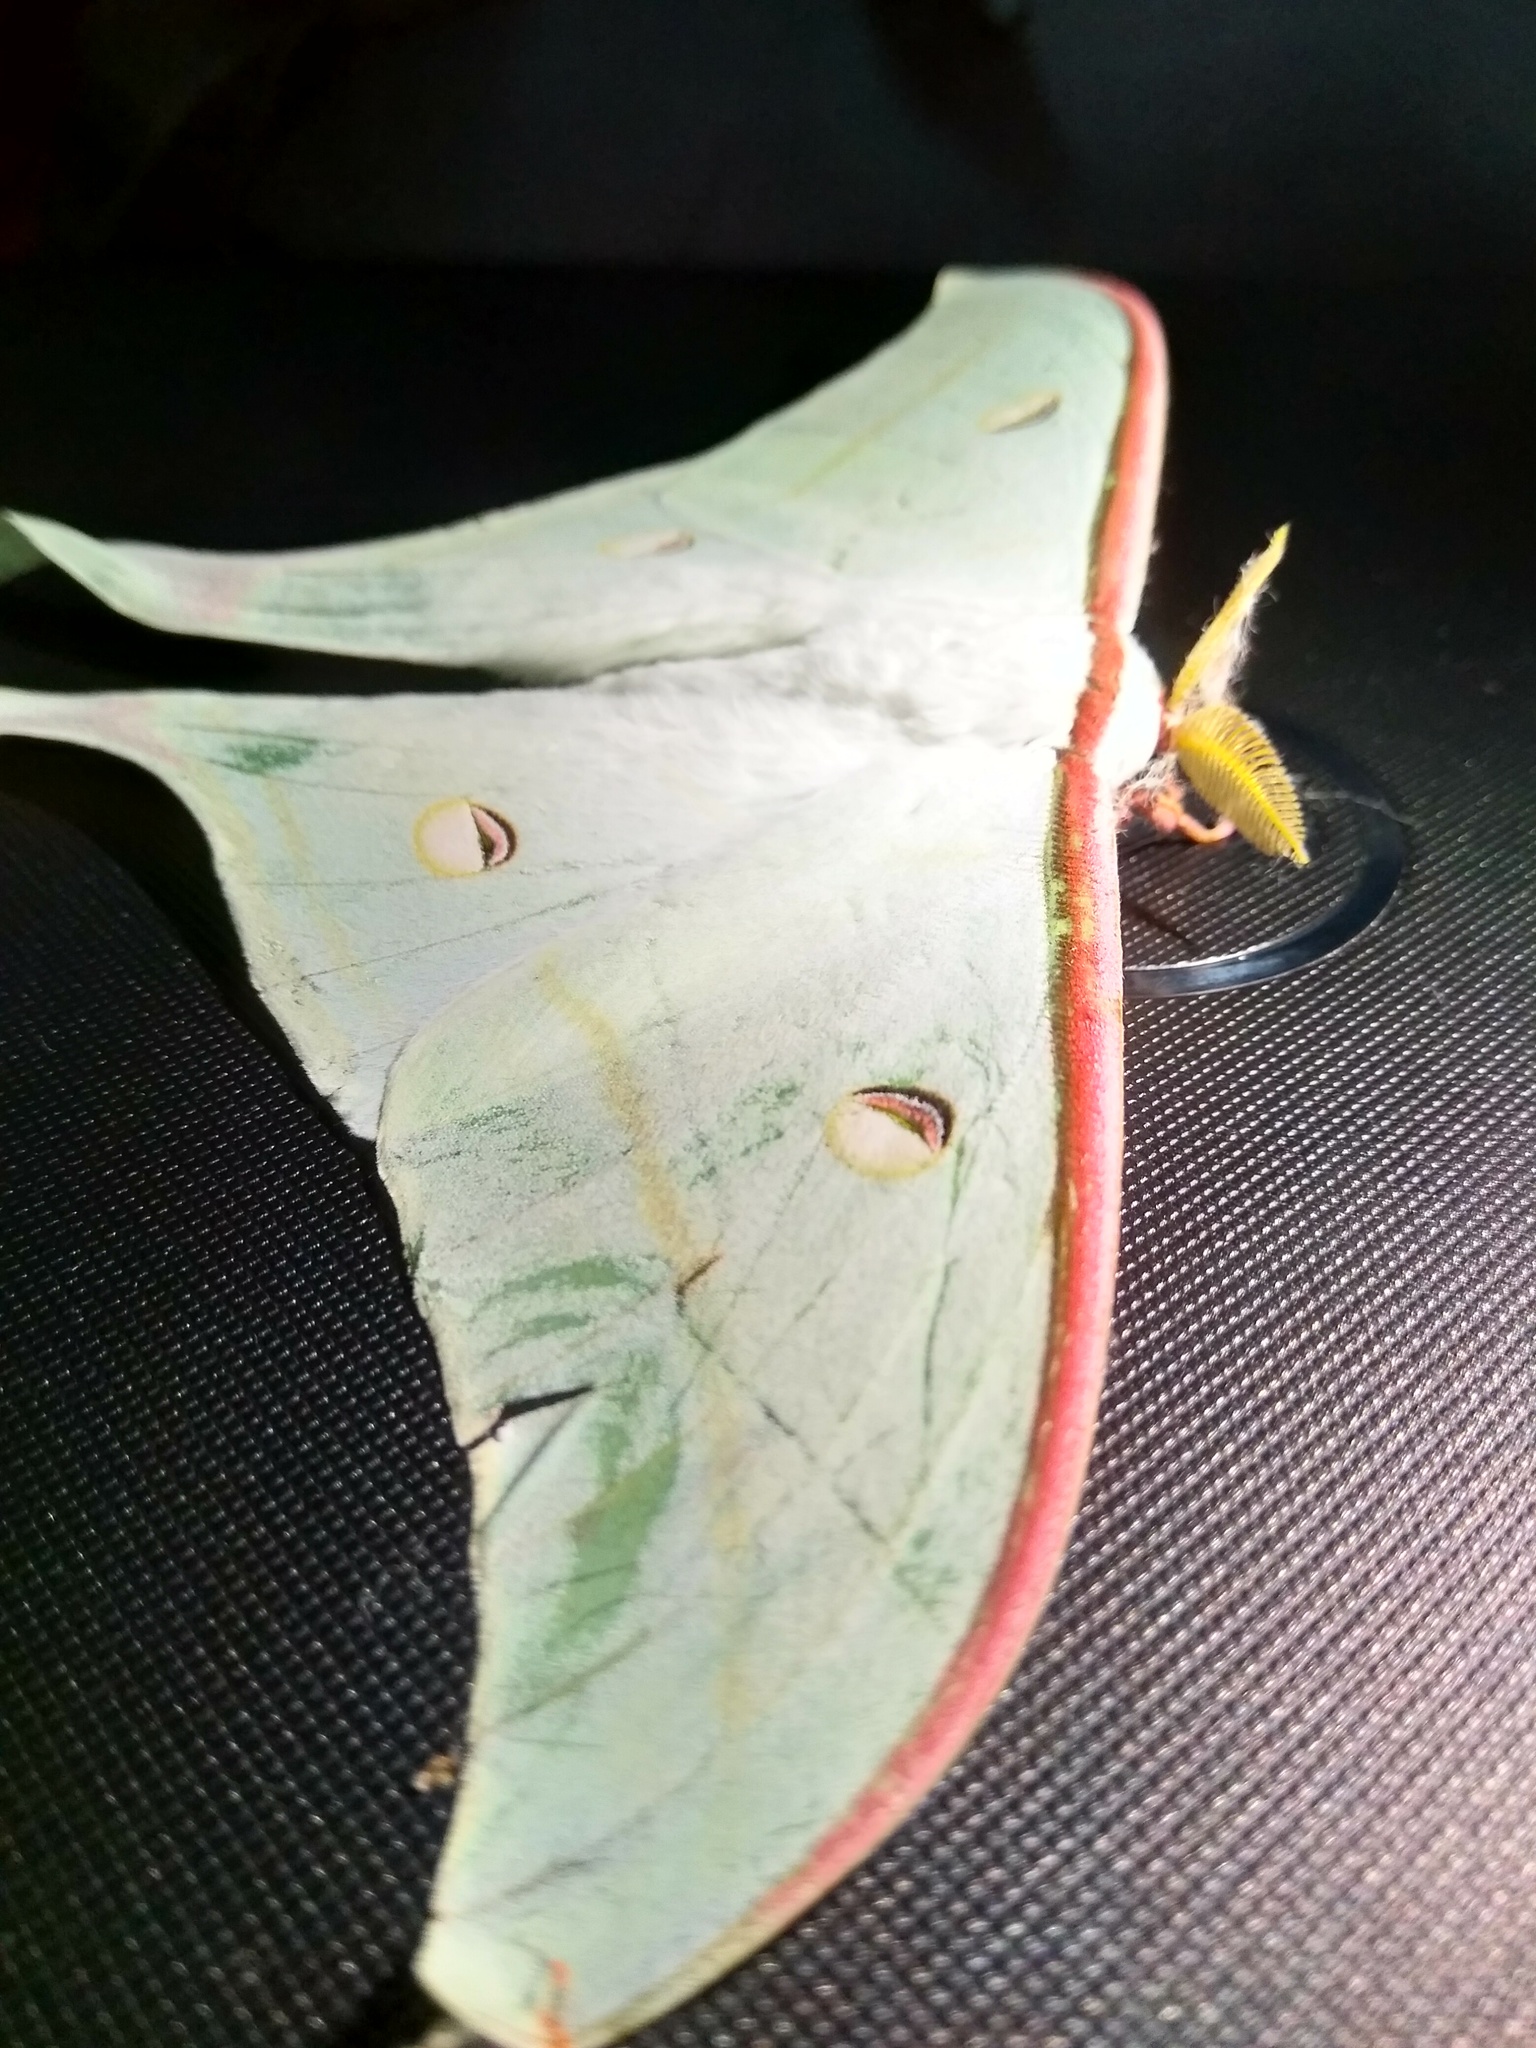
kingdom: Animalia
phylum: Arthropoda
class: Insecta
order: Lepidoptera
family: Saturniidae
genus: Actias
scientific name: Actias selene
